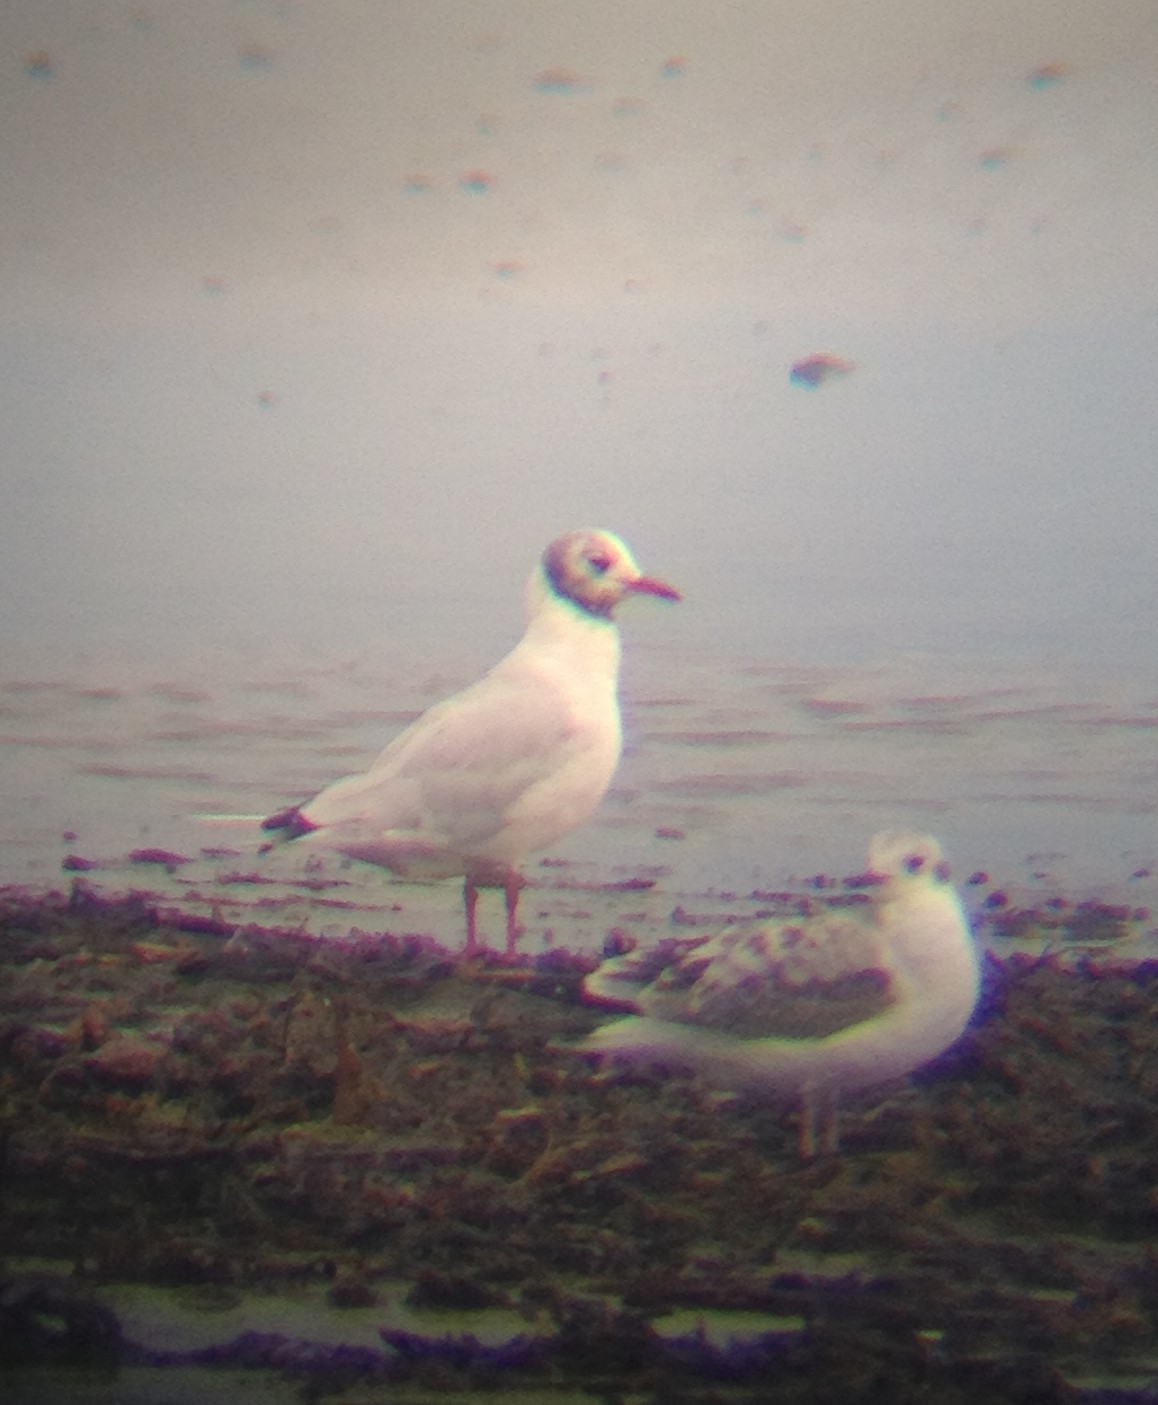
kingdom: Animalia
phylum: Chordata
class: Aves
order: Charadriiformes
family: Laridae
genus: Chroicocephalus
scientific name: Chroicocephalus ridibundus
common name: Black-headed gull
